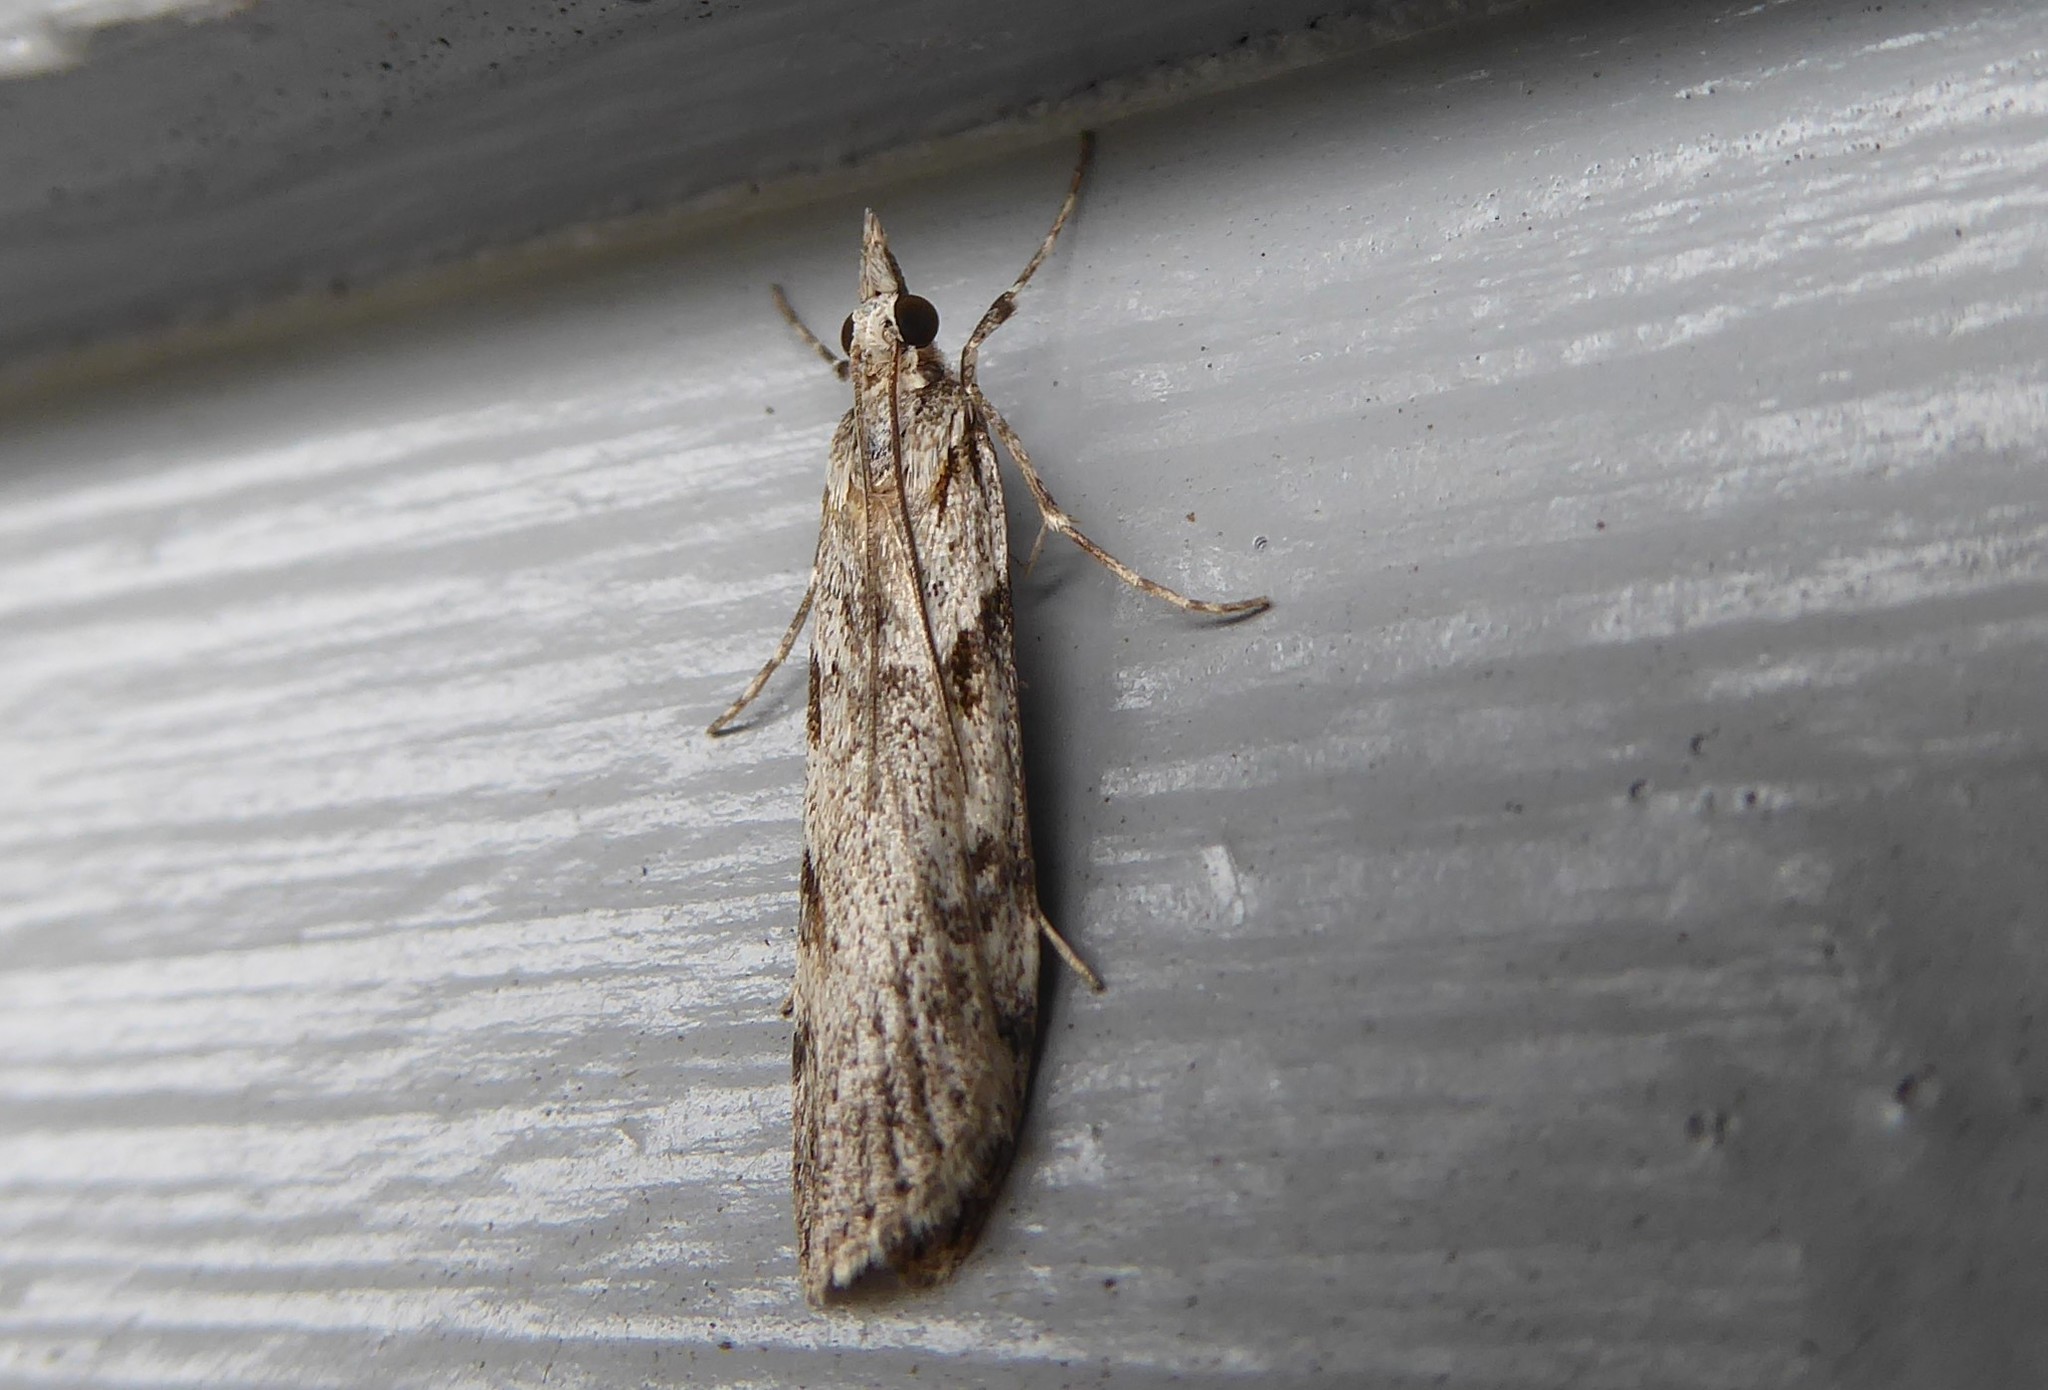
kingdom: Animalia
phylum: Arthropoda
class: Insecta
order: Lepidoptera
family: Crambidae
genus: Scoparia
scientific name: Scoparia halopis
